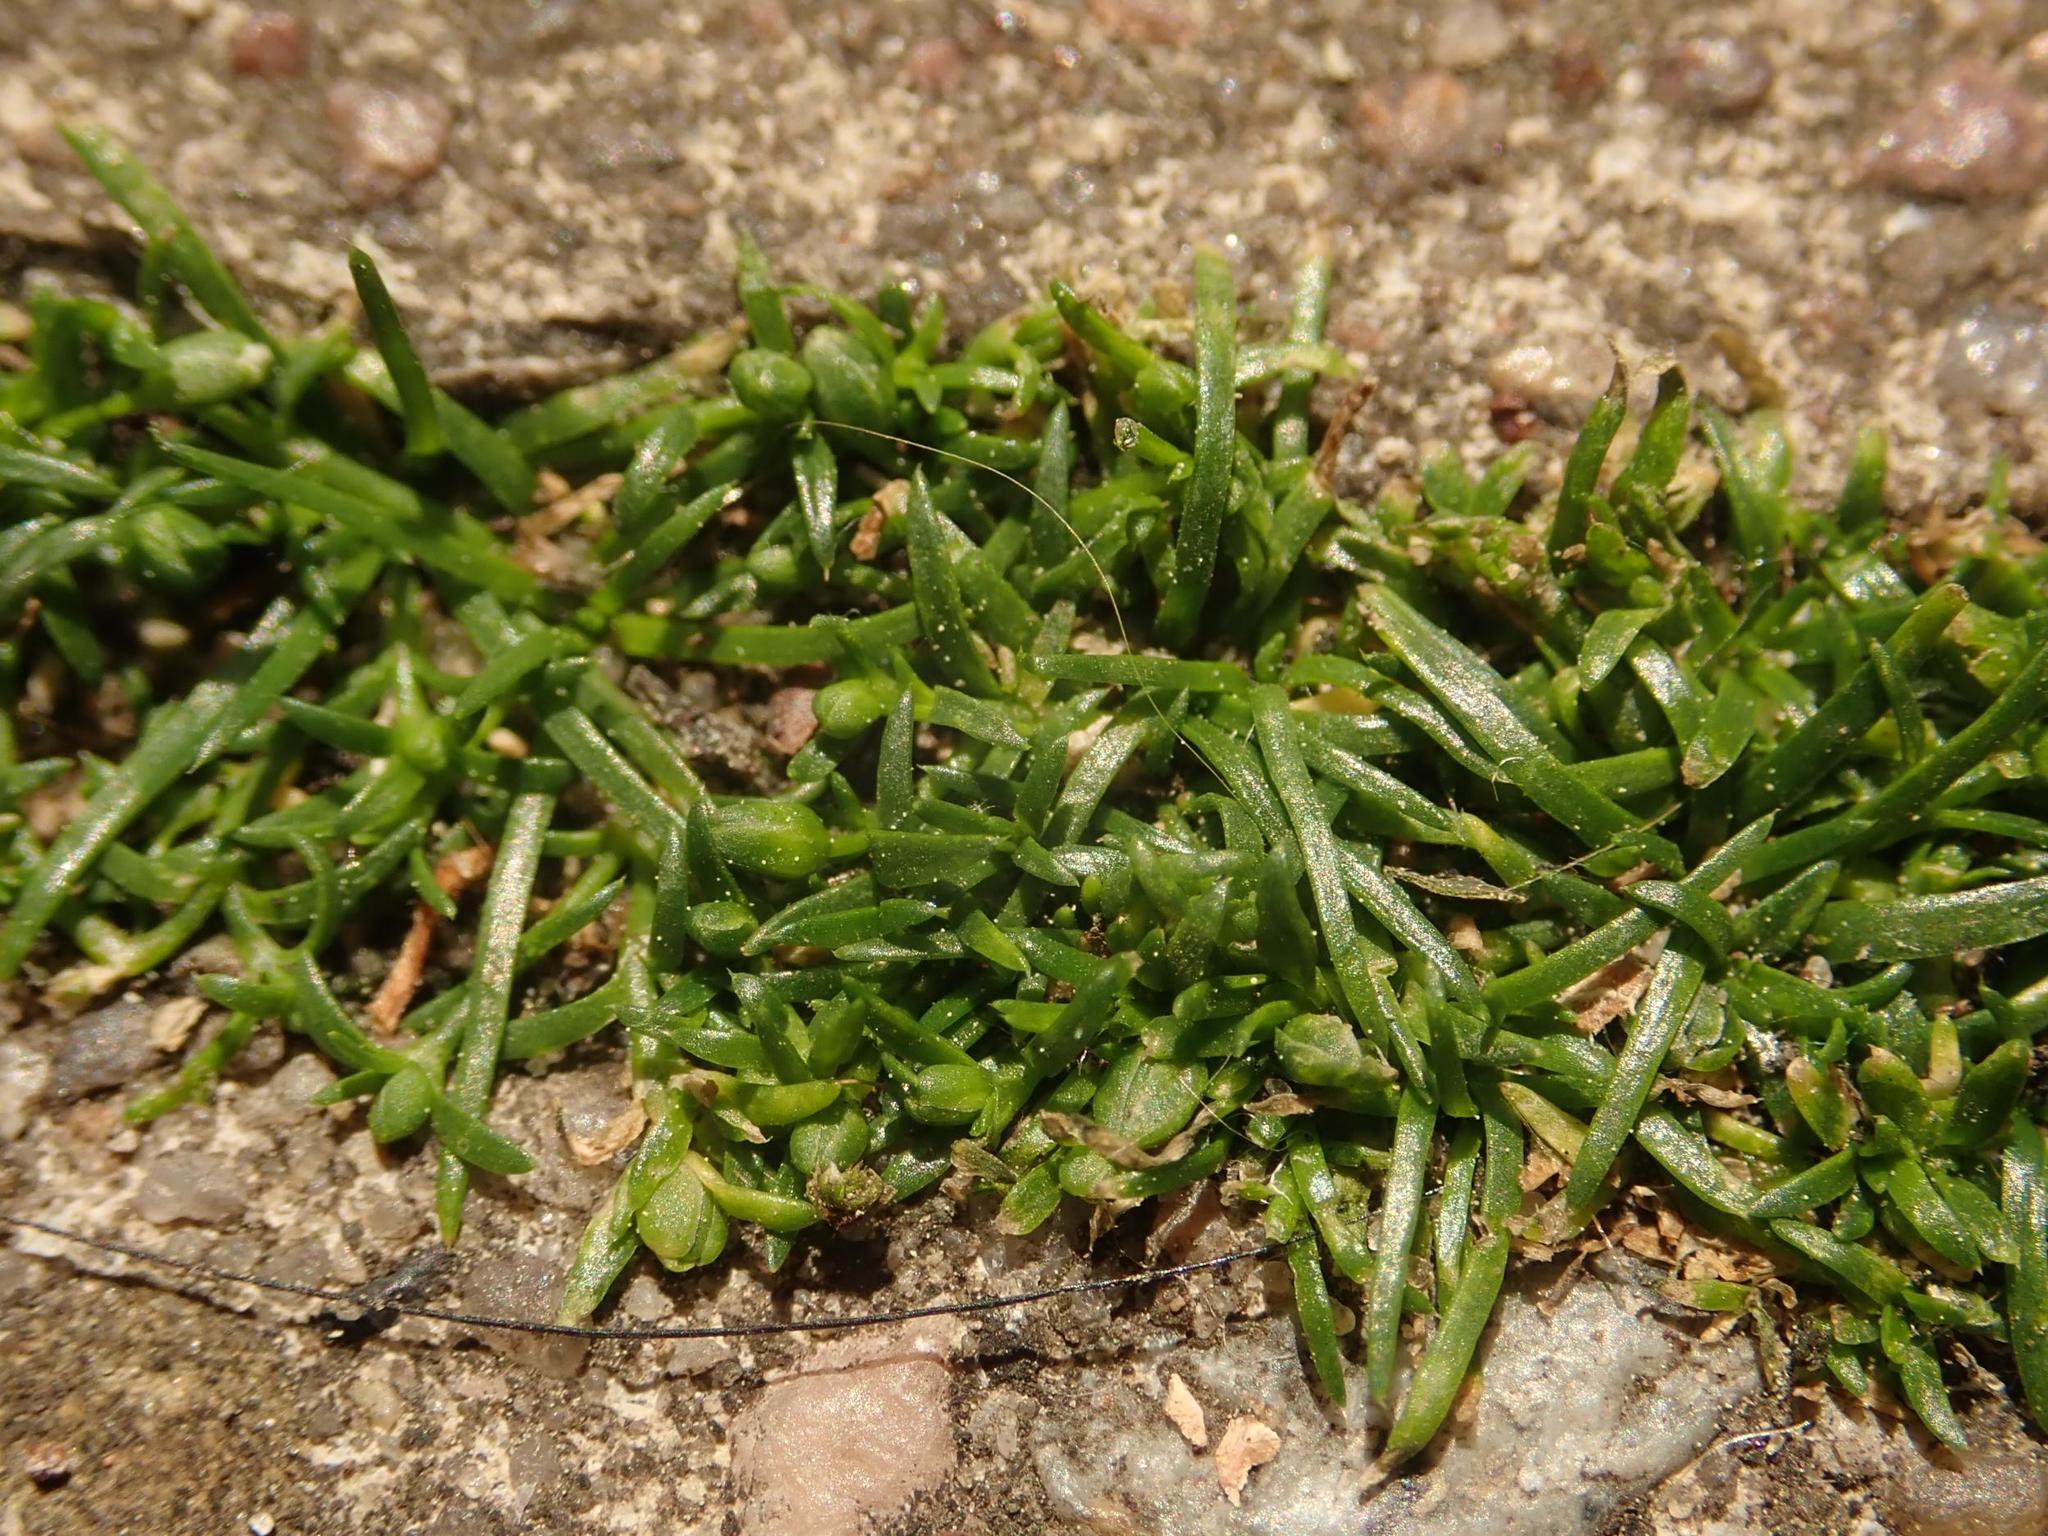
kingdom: Plantae
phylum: Tracheophyta
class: Magnoliopsida
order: Caryophyllales
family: Caryophyllaceae
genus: Sagina
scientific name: Sagina procumbens
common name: Procumbent pearlwort
